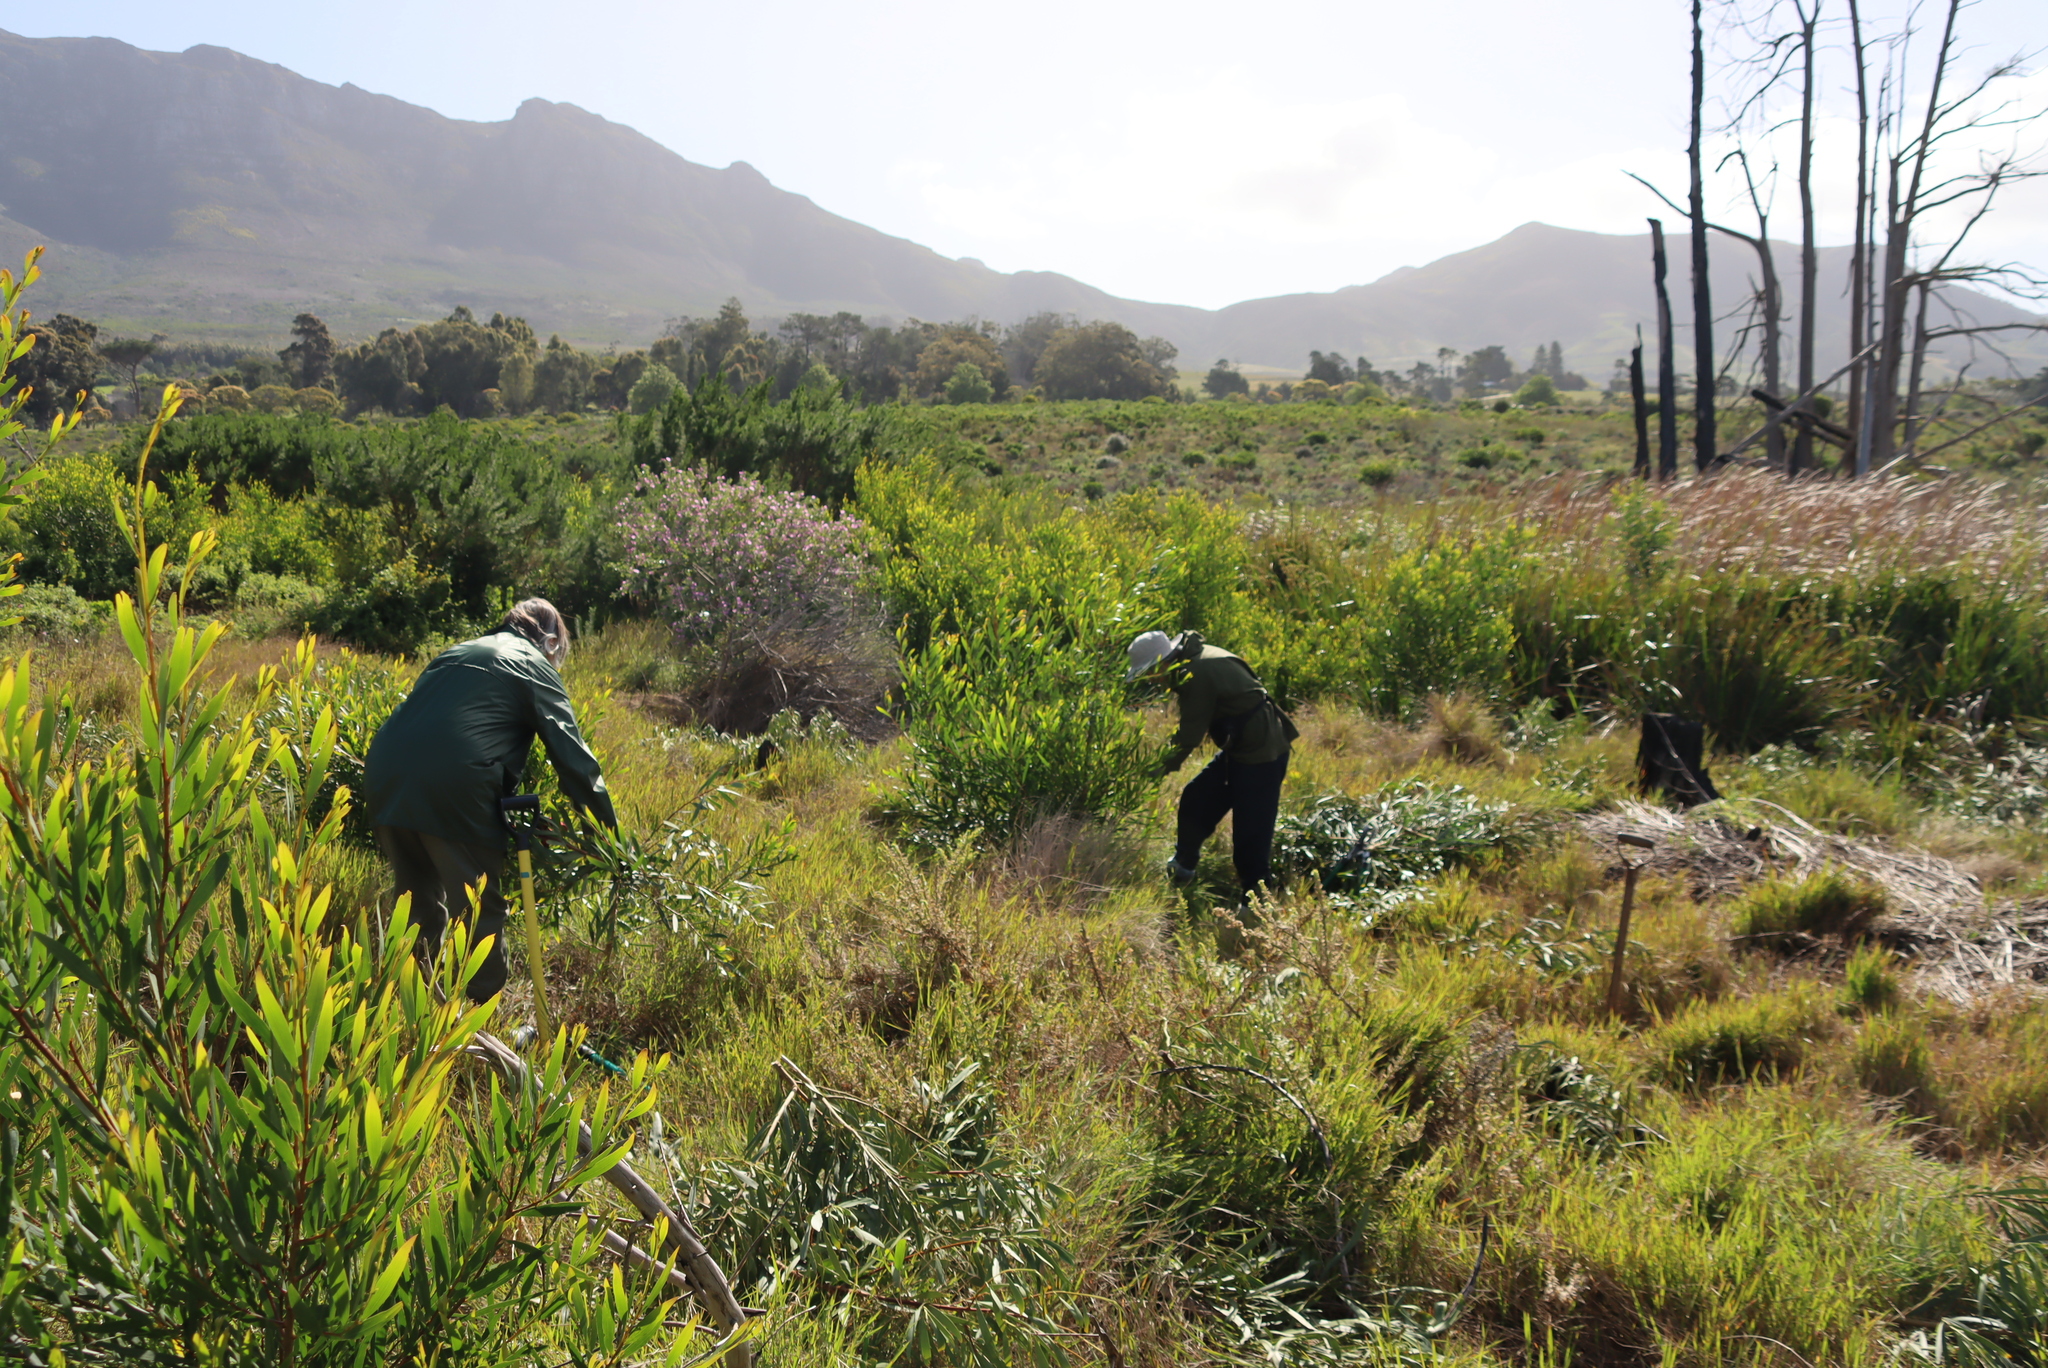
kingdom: Plantae
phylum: Tracheophyta
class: Magnoliopsida
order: Fabales
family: Fabaceae
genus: Acacia
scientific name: Acacia longifolia
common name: Sydney golden wattle
